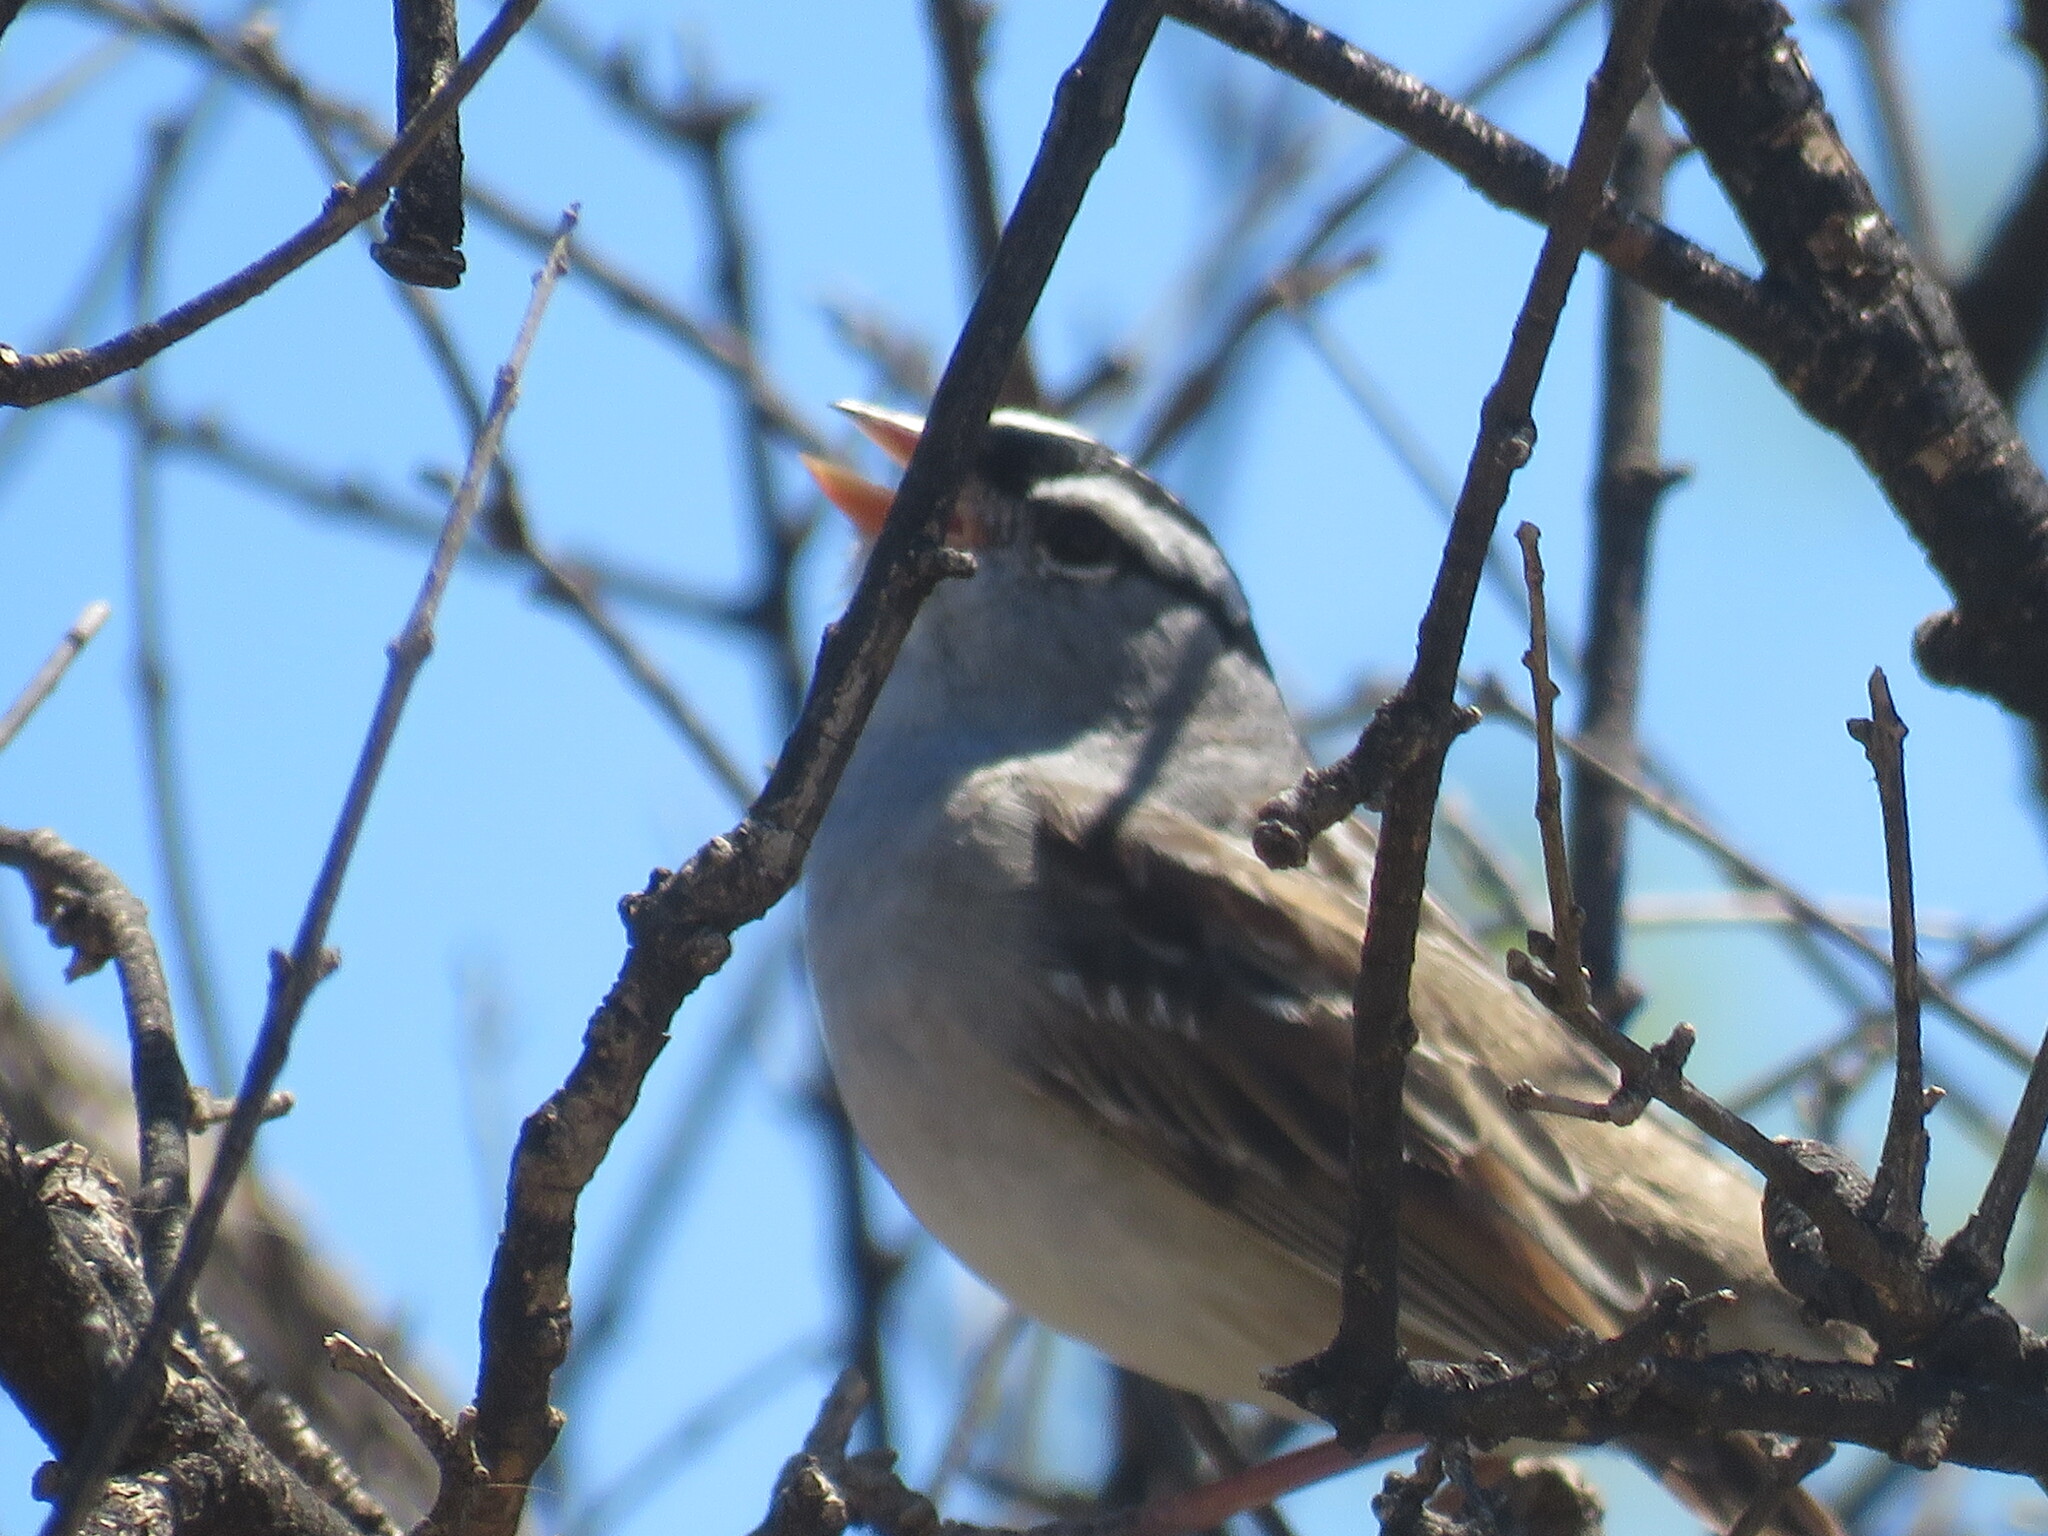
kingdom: Animalia
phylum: Chordata
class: Aves
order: Passeriformes
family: Passerellidae
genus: Zonotrichia
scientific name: Zonotrichia leucophrys
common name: White-crowned sparrow
